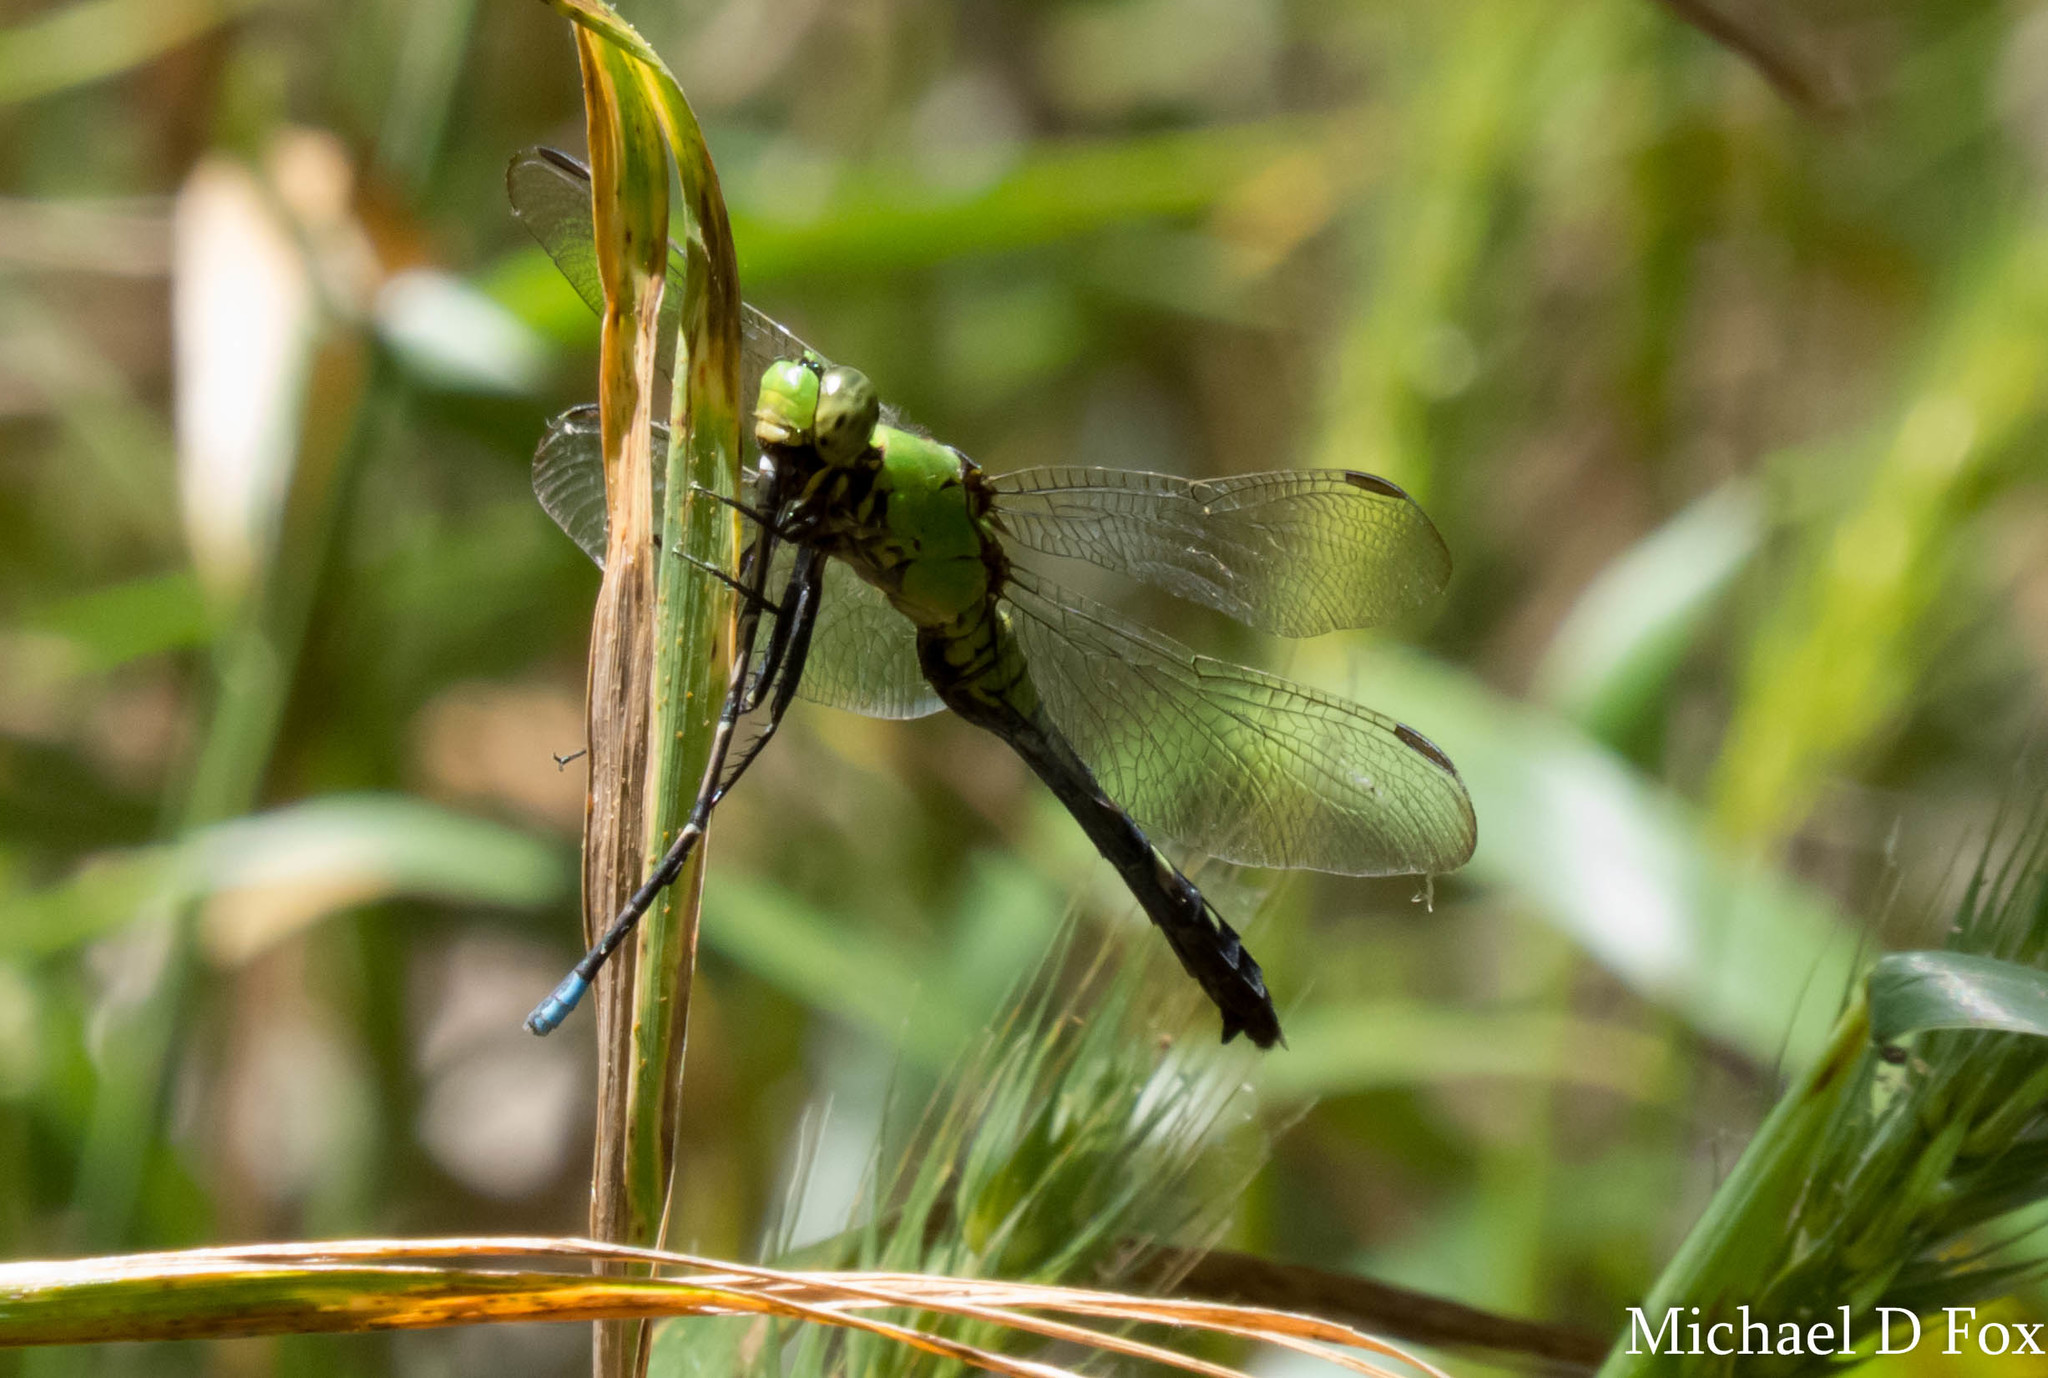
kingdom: Animalia
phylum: Arthropoda
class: Insecta
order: Odonata
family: Libellulidae
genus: Erythemis
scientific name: Erythemis simplicicollis
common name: Eastern pondhawk
